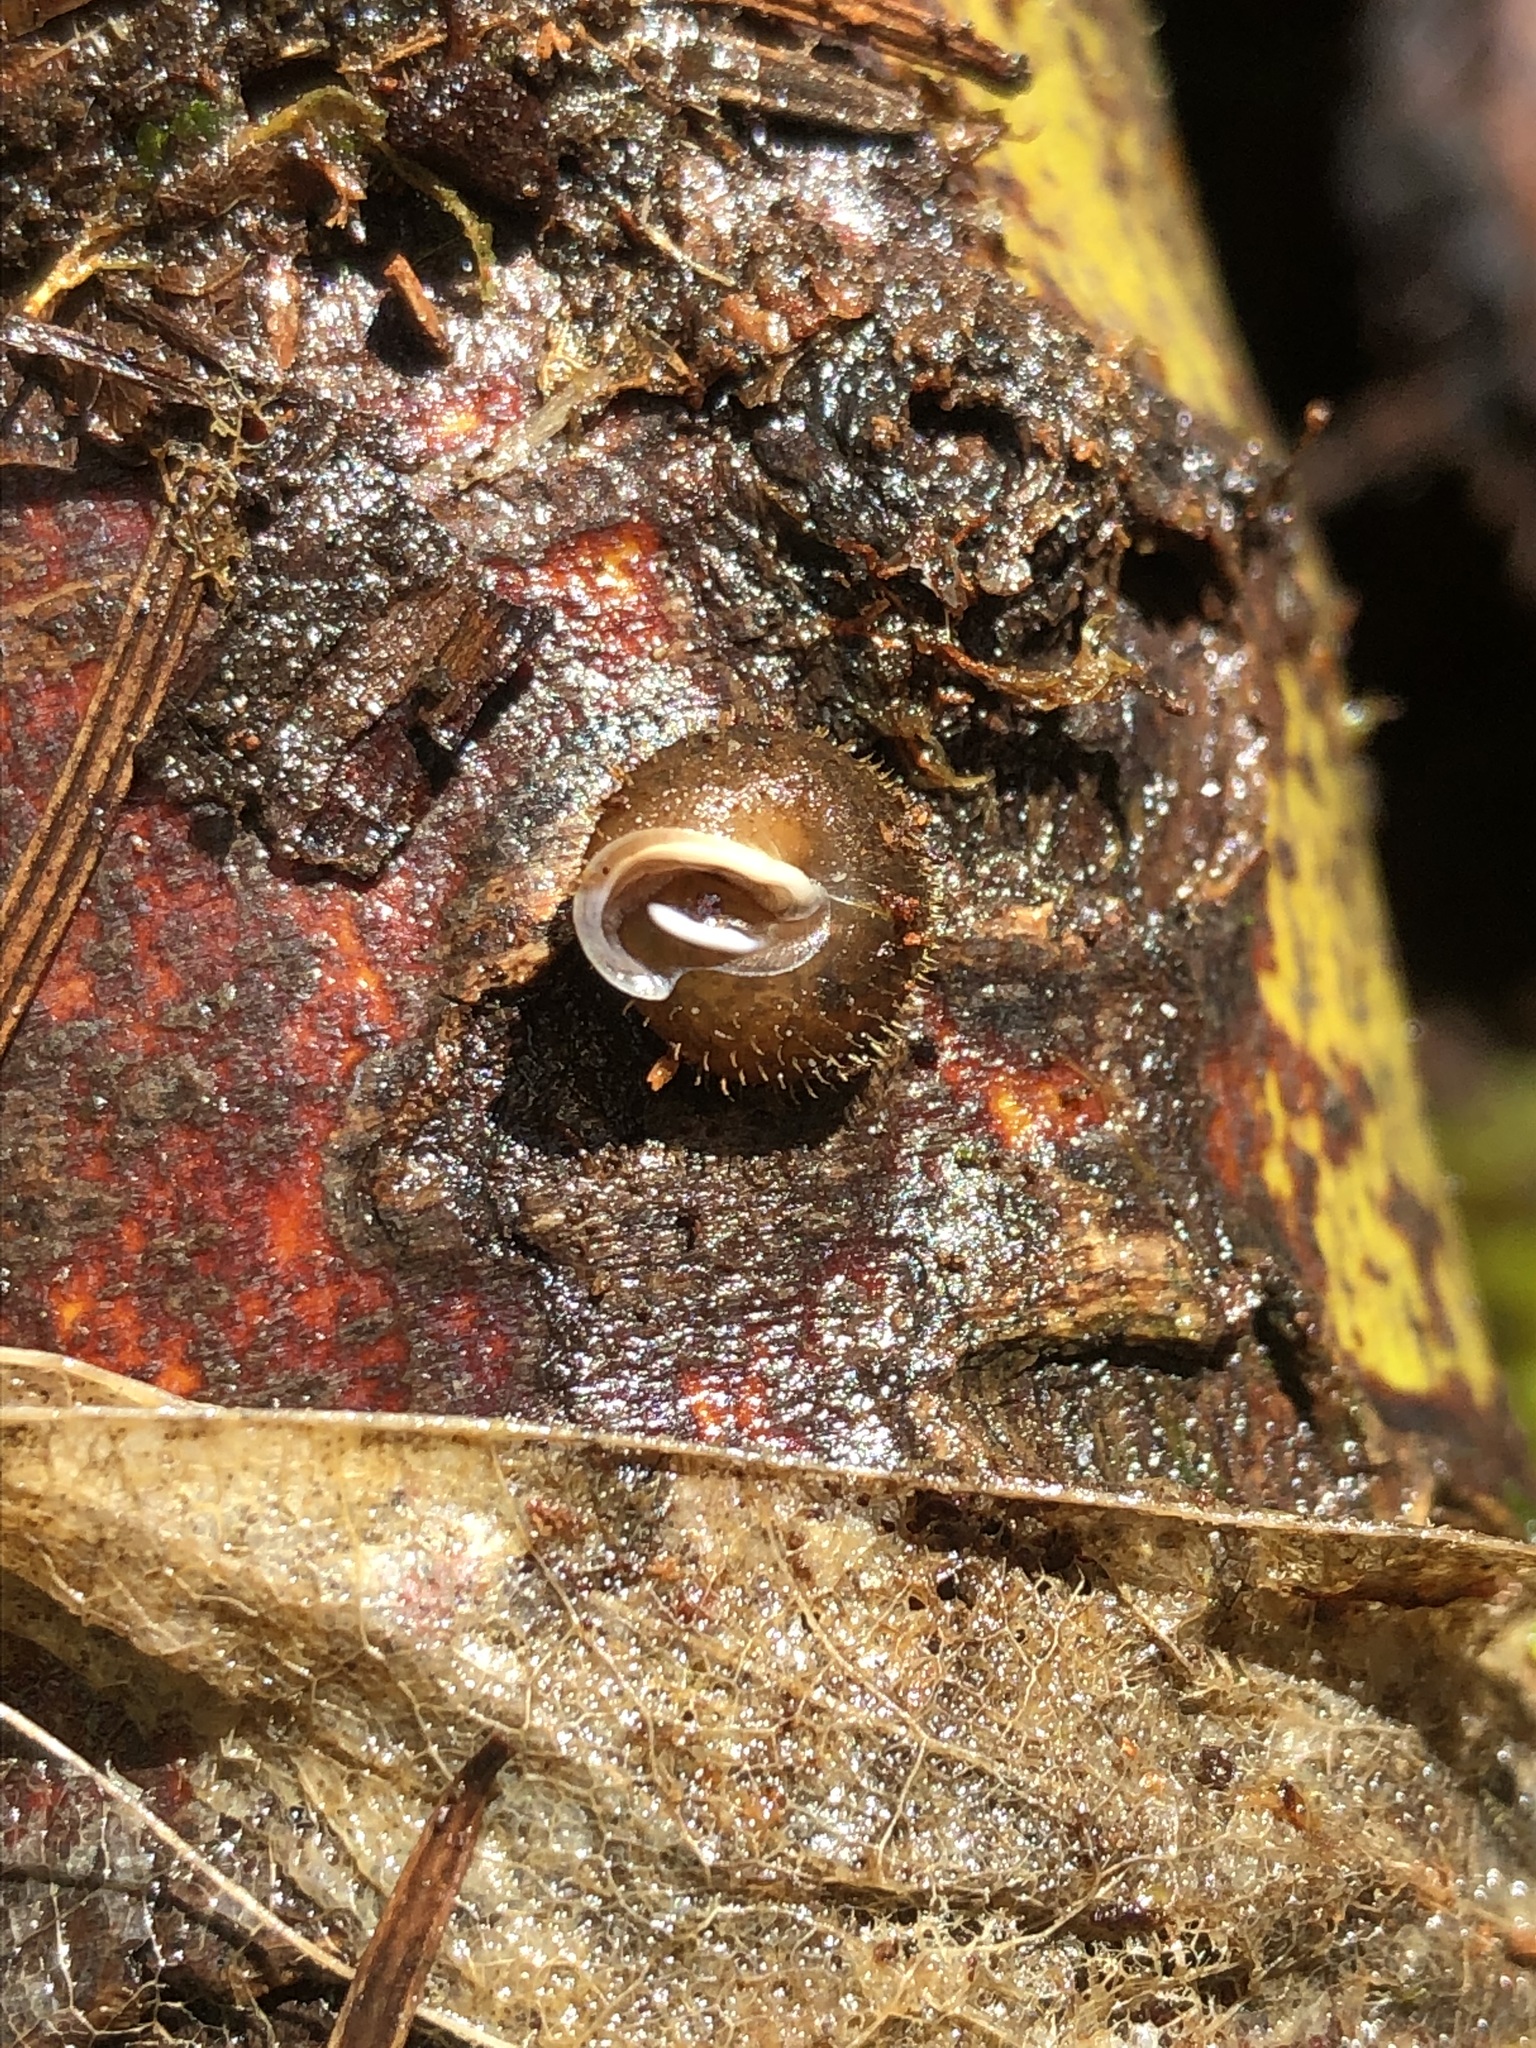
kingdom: Animalia
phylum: Mollusca
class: Gastropoda
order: Stylommatophora
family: Polygyridae
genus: Cryptomastix
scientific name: Cryptomastix germana
